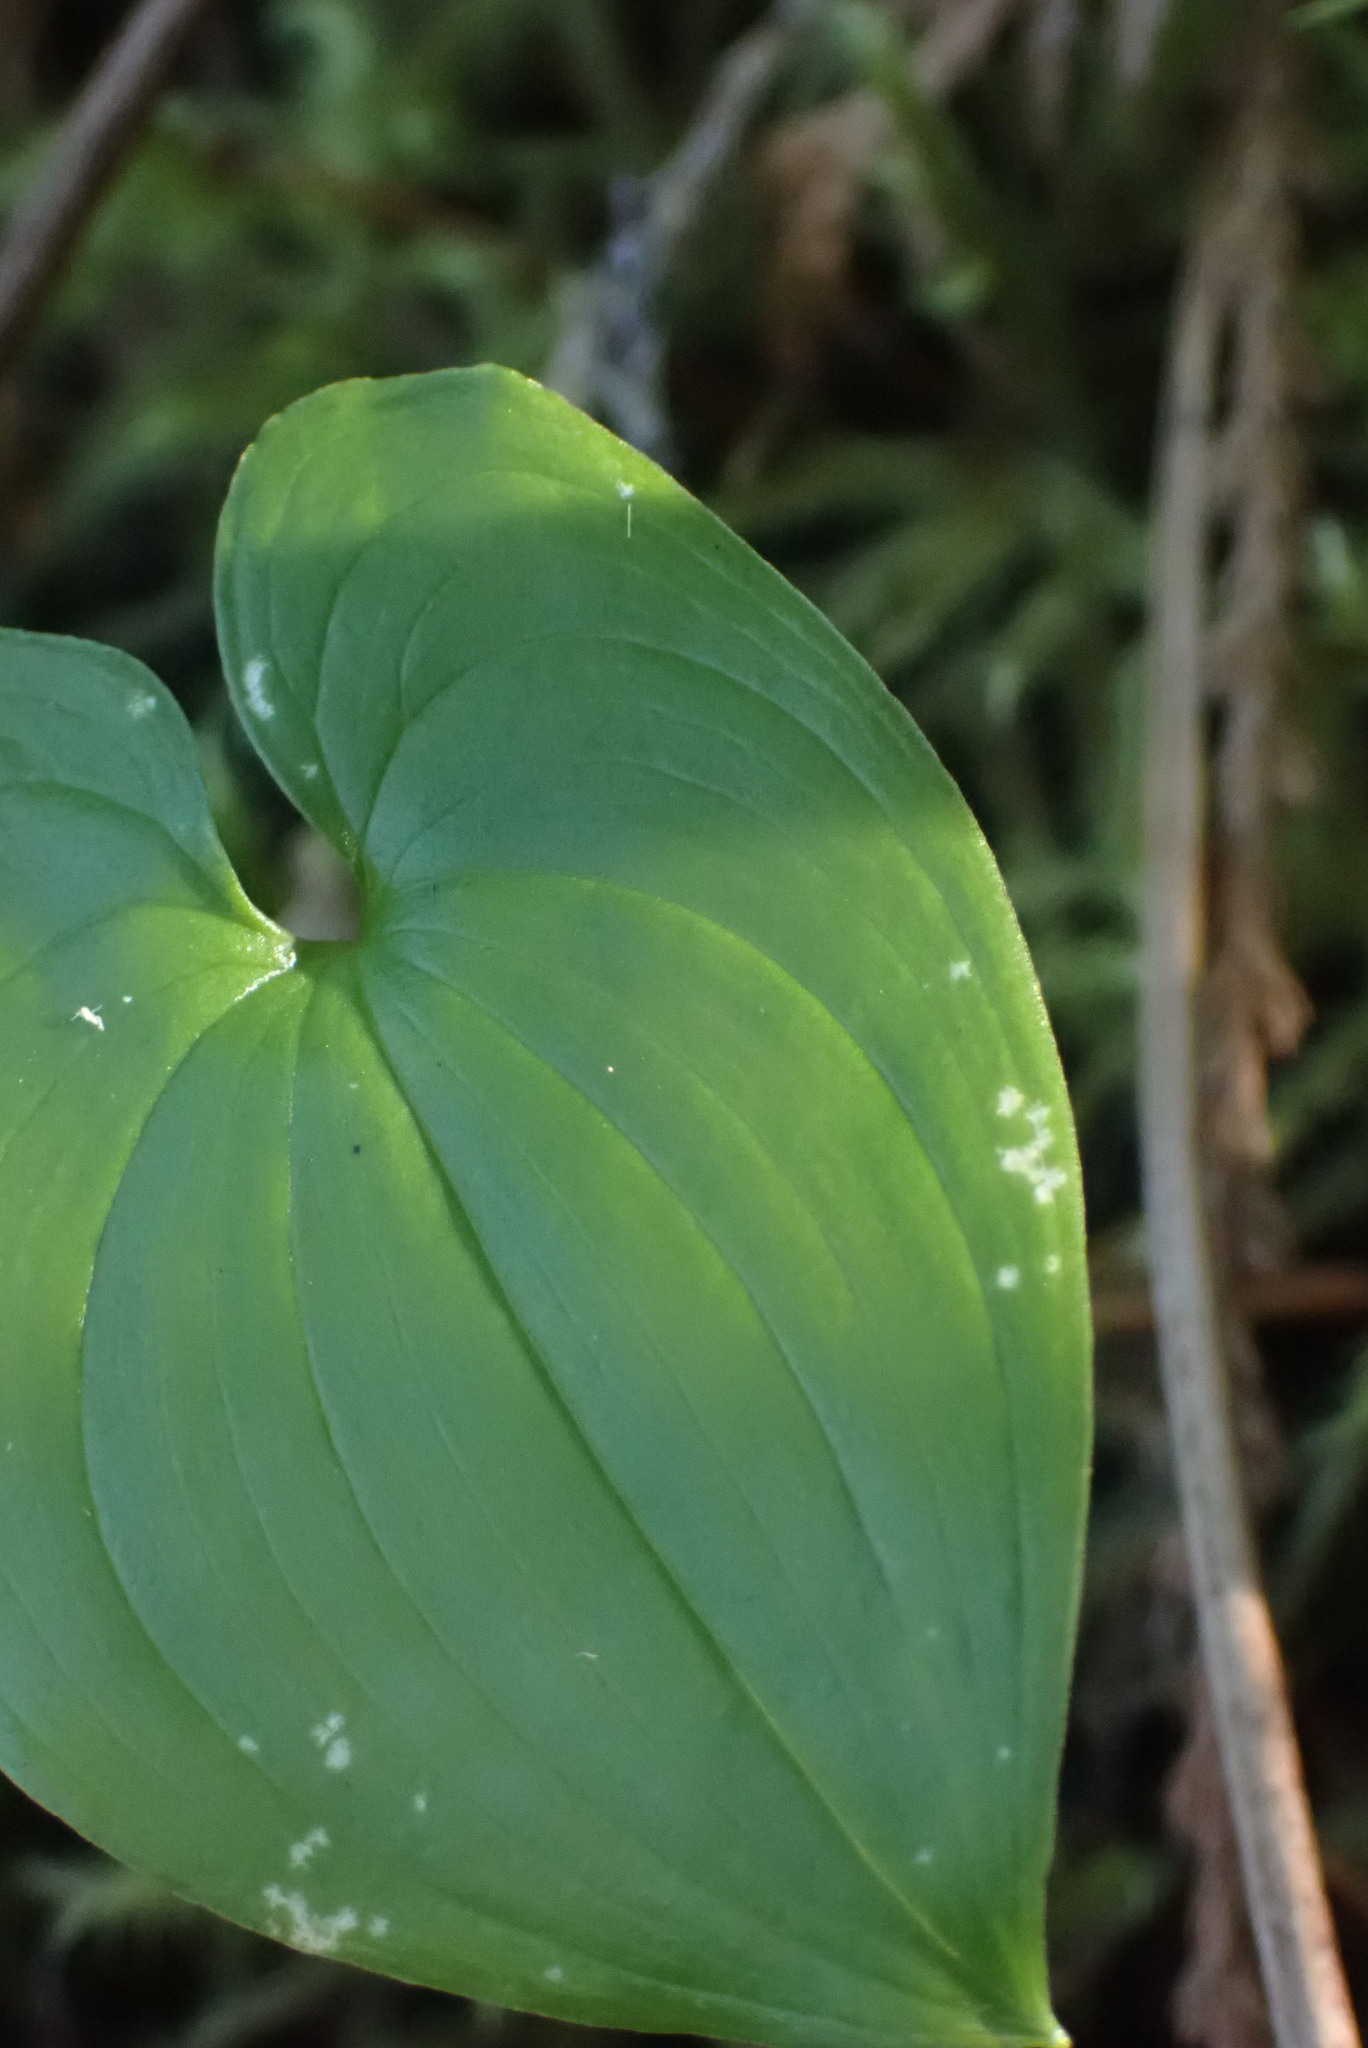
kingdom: Plantae
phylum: Tracheophyta
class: Liliopsida
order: Asparagales
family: Asparagaceae
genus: Maianthemum
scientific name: Maianthemum dilatatum
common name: False lily-of-the-valley
